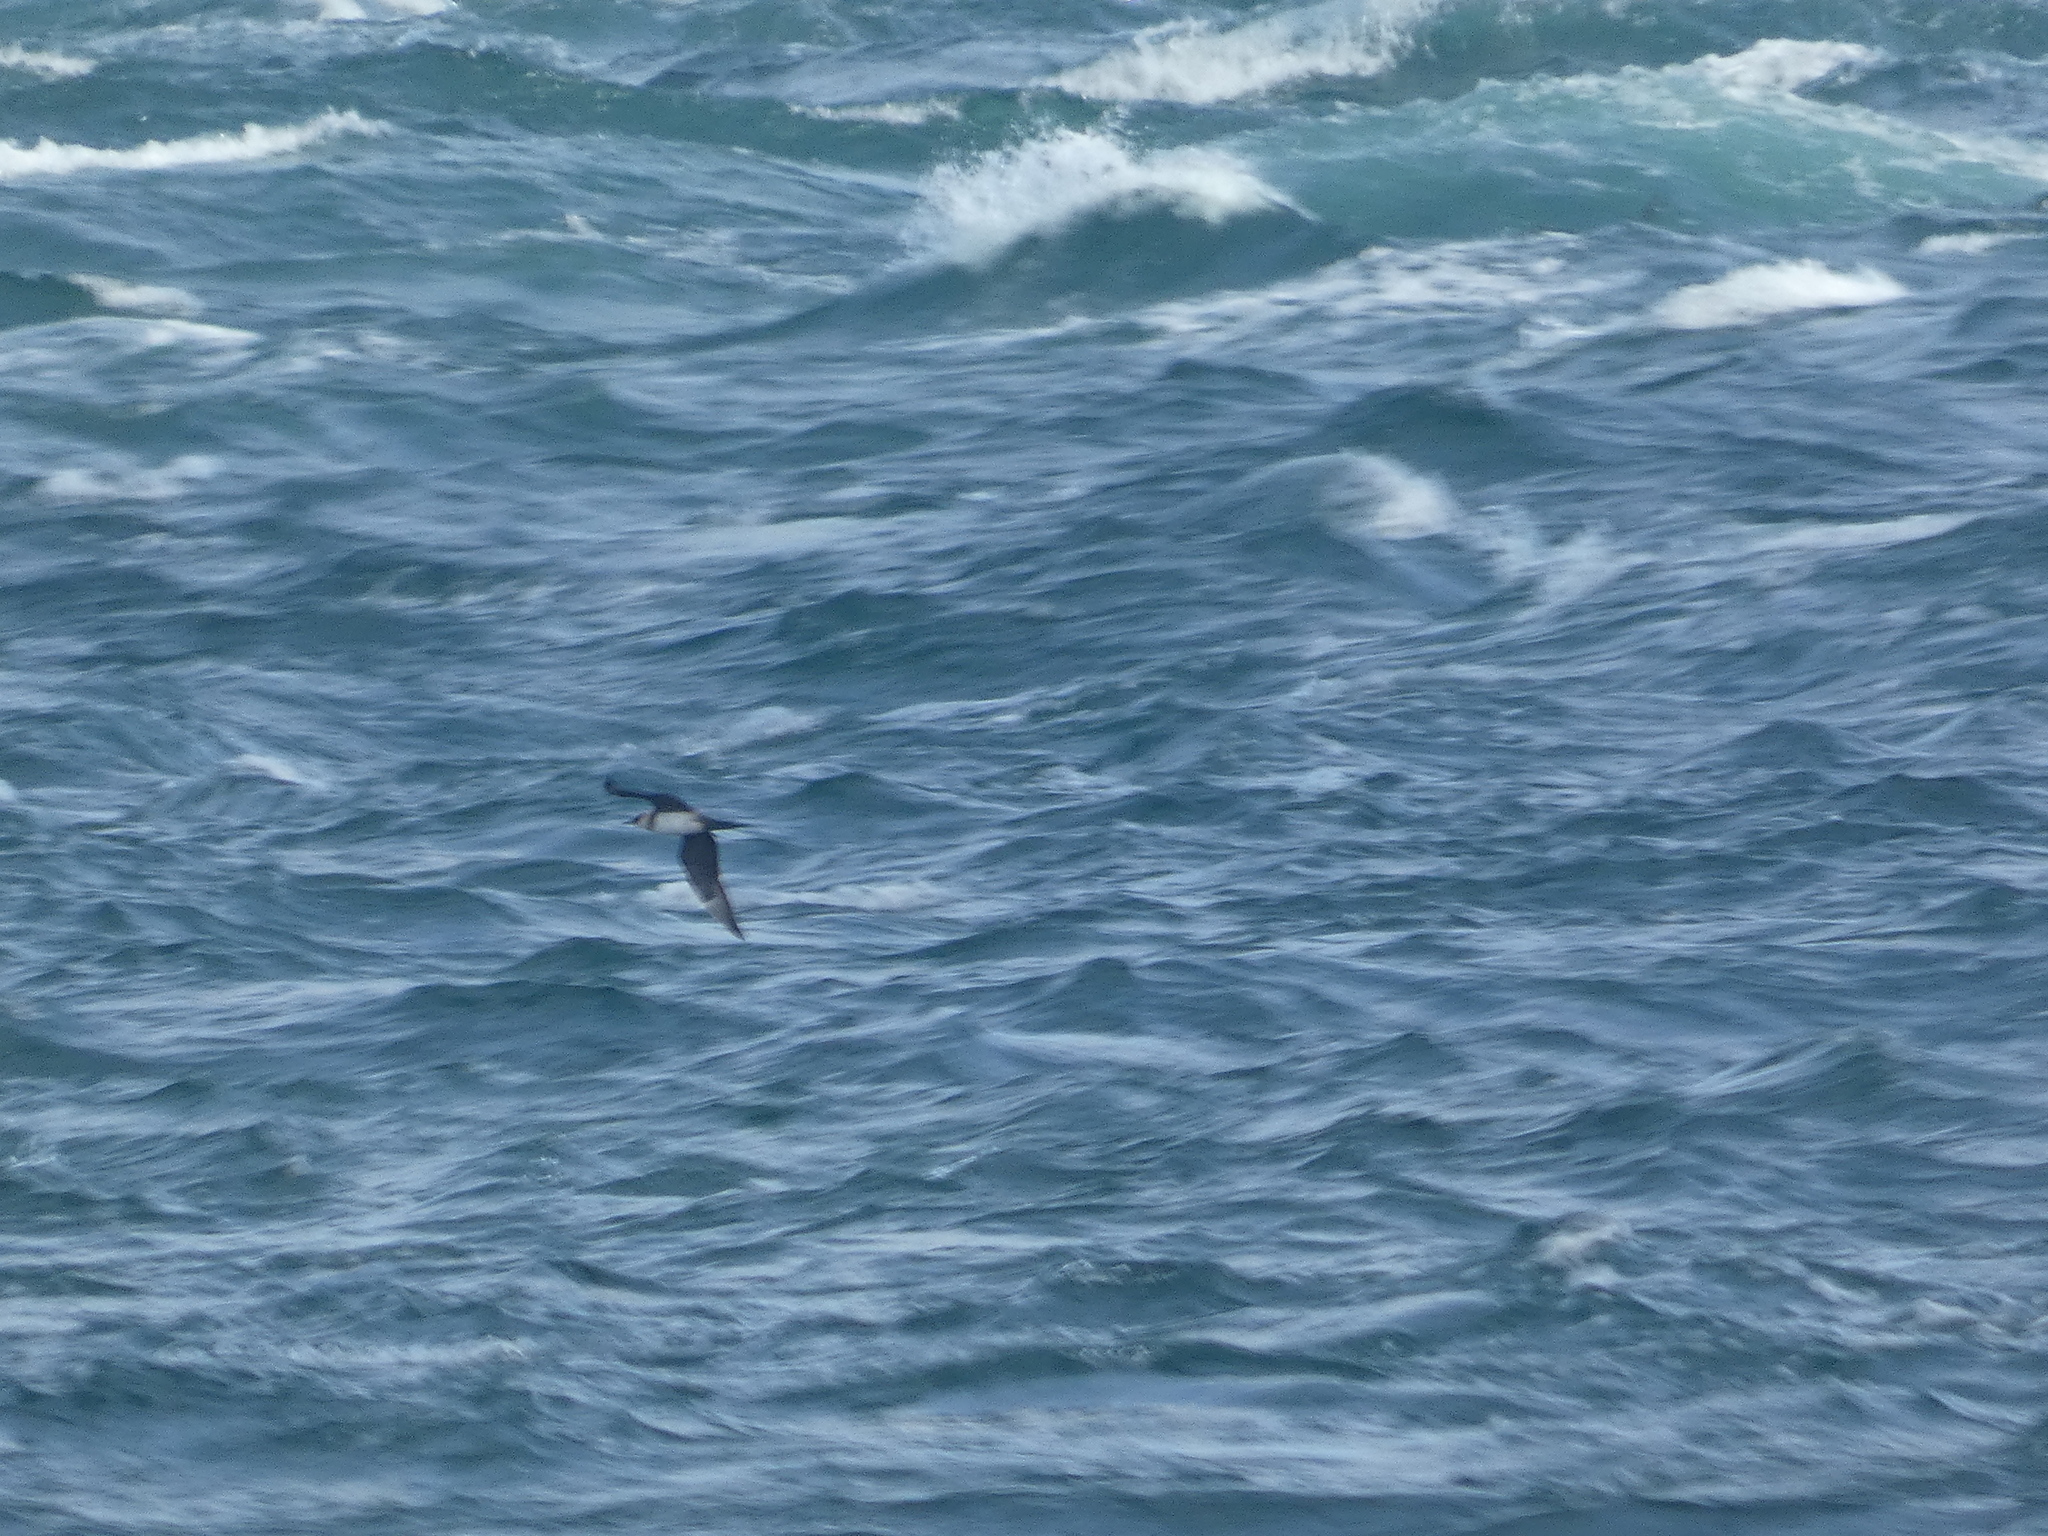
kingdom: Animalia
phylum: Chordata
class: Aves
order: Charadriiformes
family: Stercorariidae
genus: Stercorarius
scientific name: Stercorarius parasiticus
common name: Parasitic jaeger
